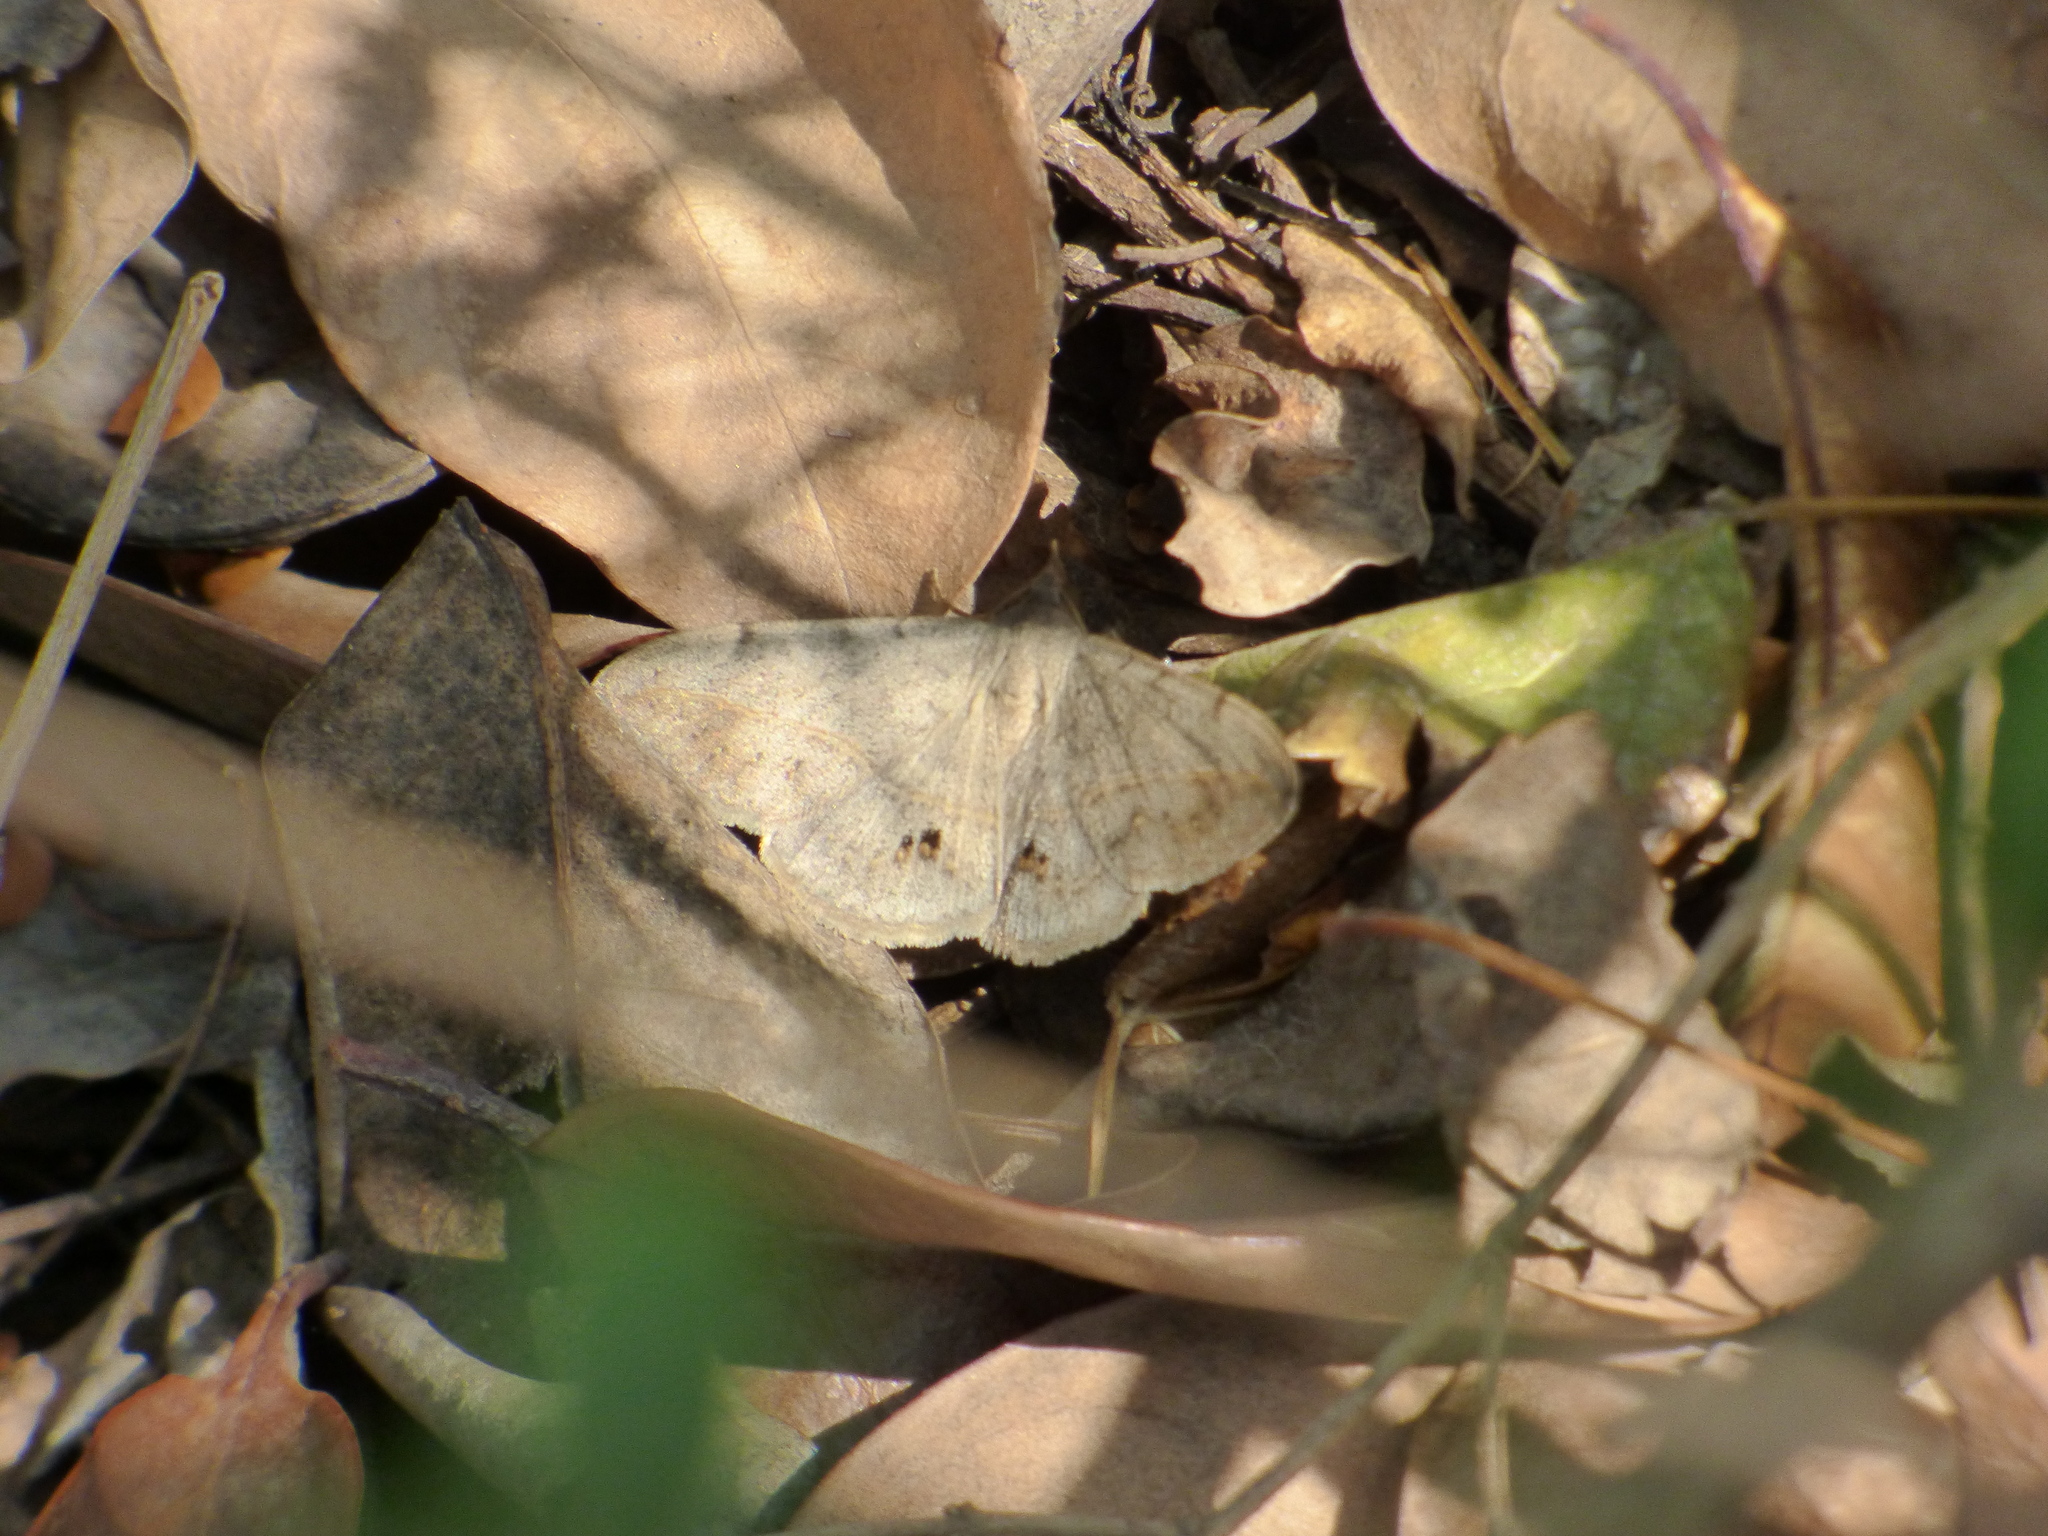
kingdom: Animalia
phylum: Arthropoda
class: Insecta
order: Lepidoptera
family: Erebidae
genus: Anticarsia
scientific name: Anticarsia gemmatalis
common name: Cutworm moth
